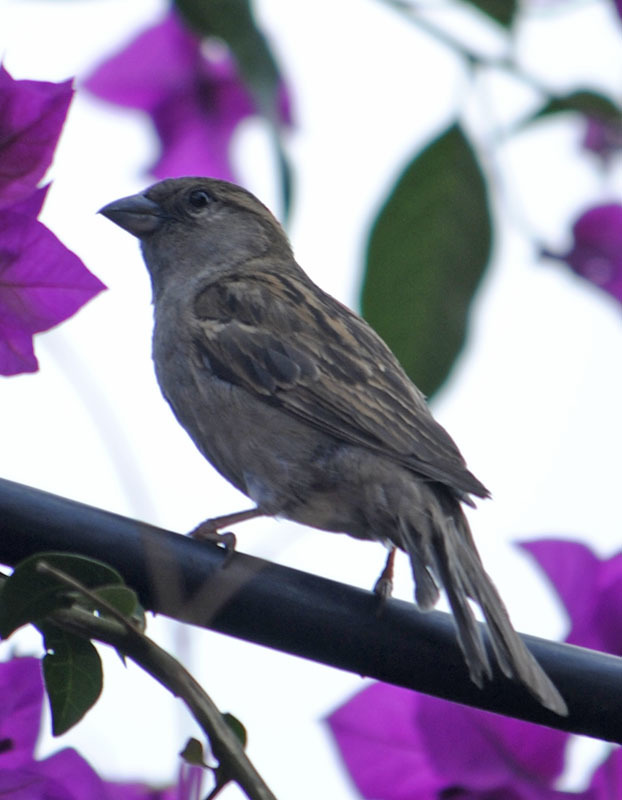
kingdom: Animalia
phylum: Chordata
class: Aves
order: Passeriformes
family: Passeridae
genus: Passer
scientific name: Passer domesticus
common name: House sparrow
